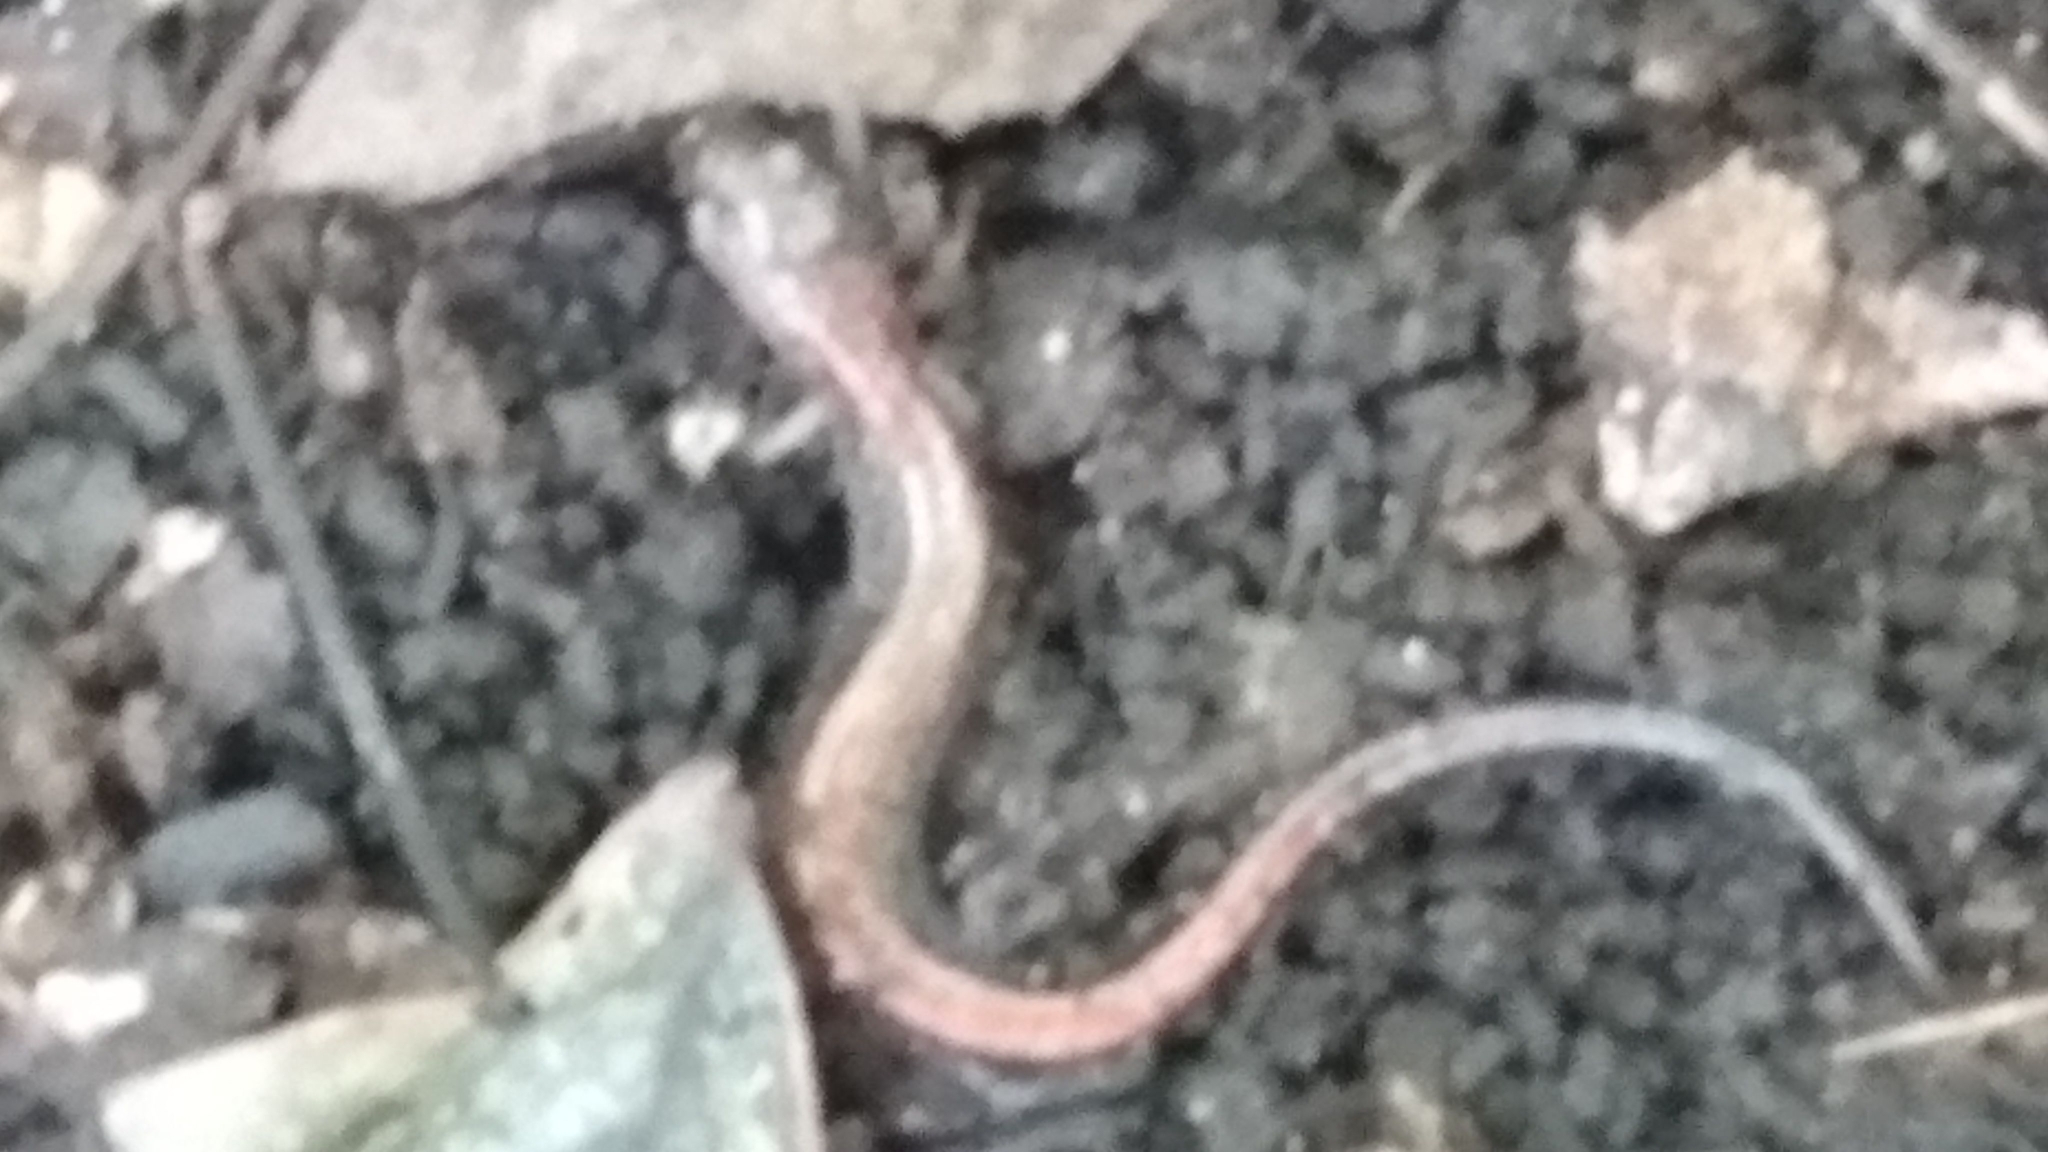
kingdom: Animalia
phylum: Chordata
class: Amphibia
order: Caudata
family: Plethodontidae
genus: Plethodon
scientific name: Plethodon cinereus
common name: Redback salamander
